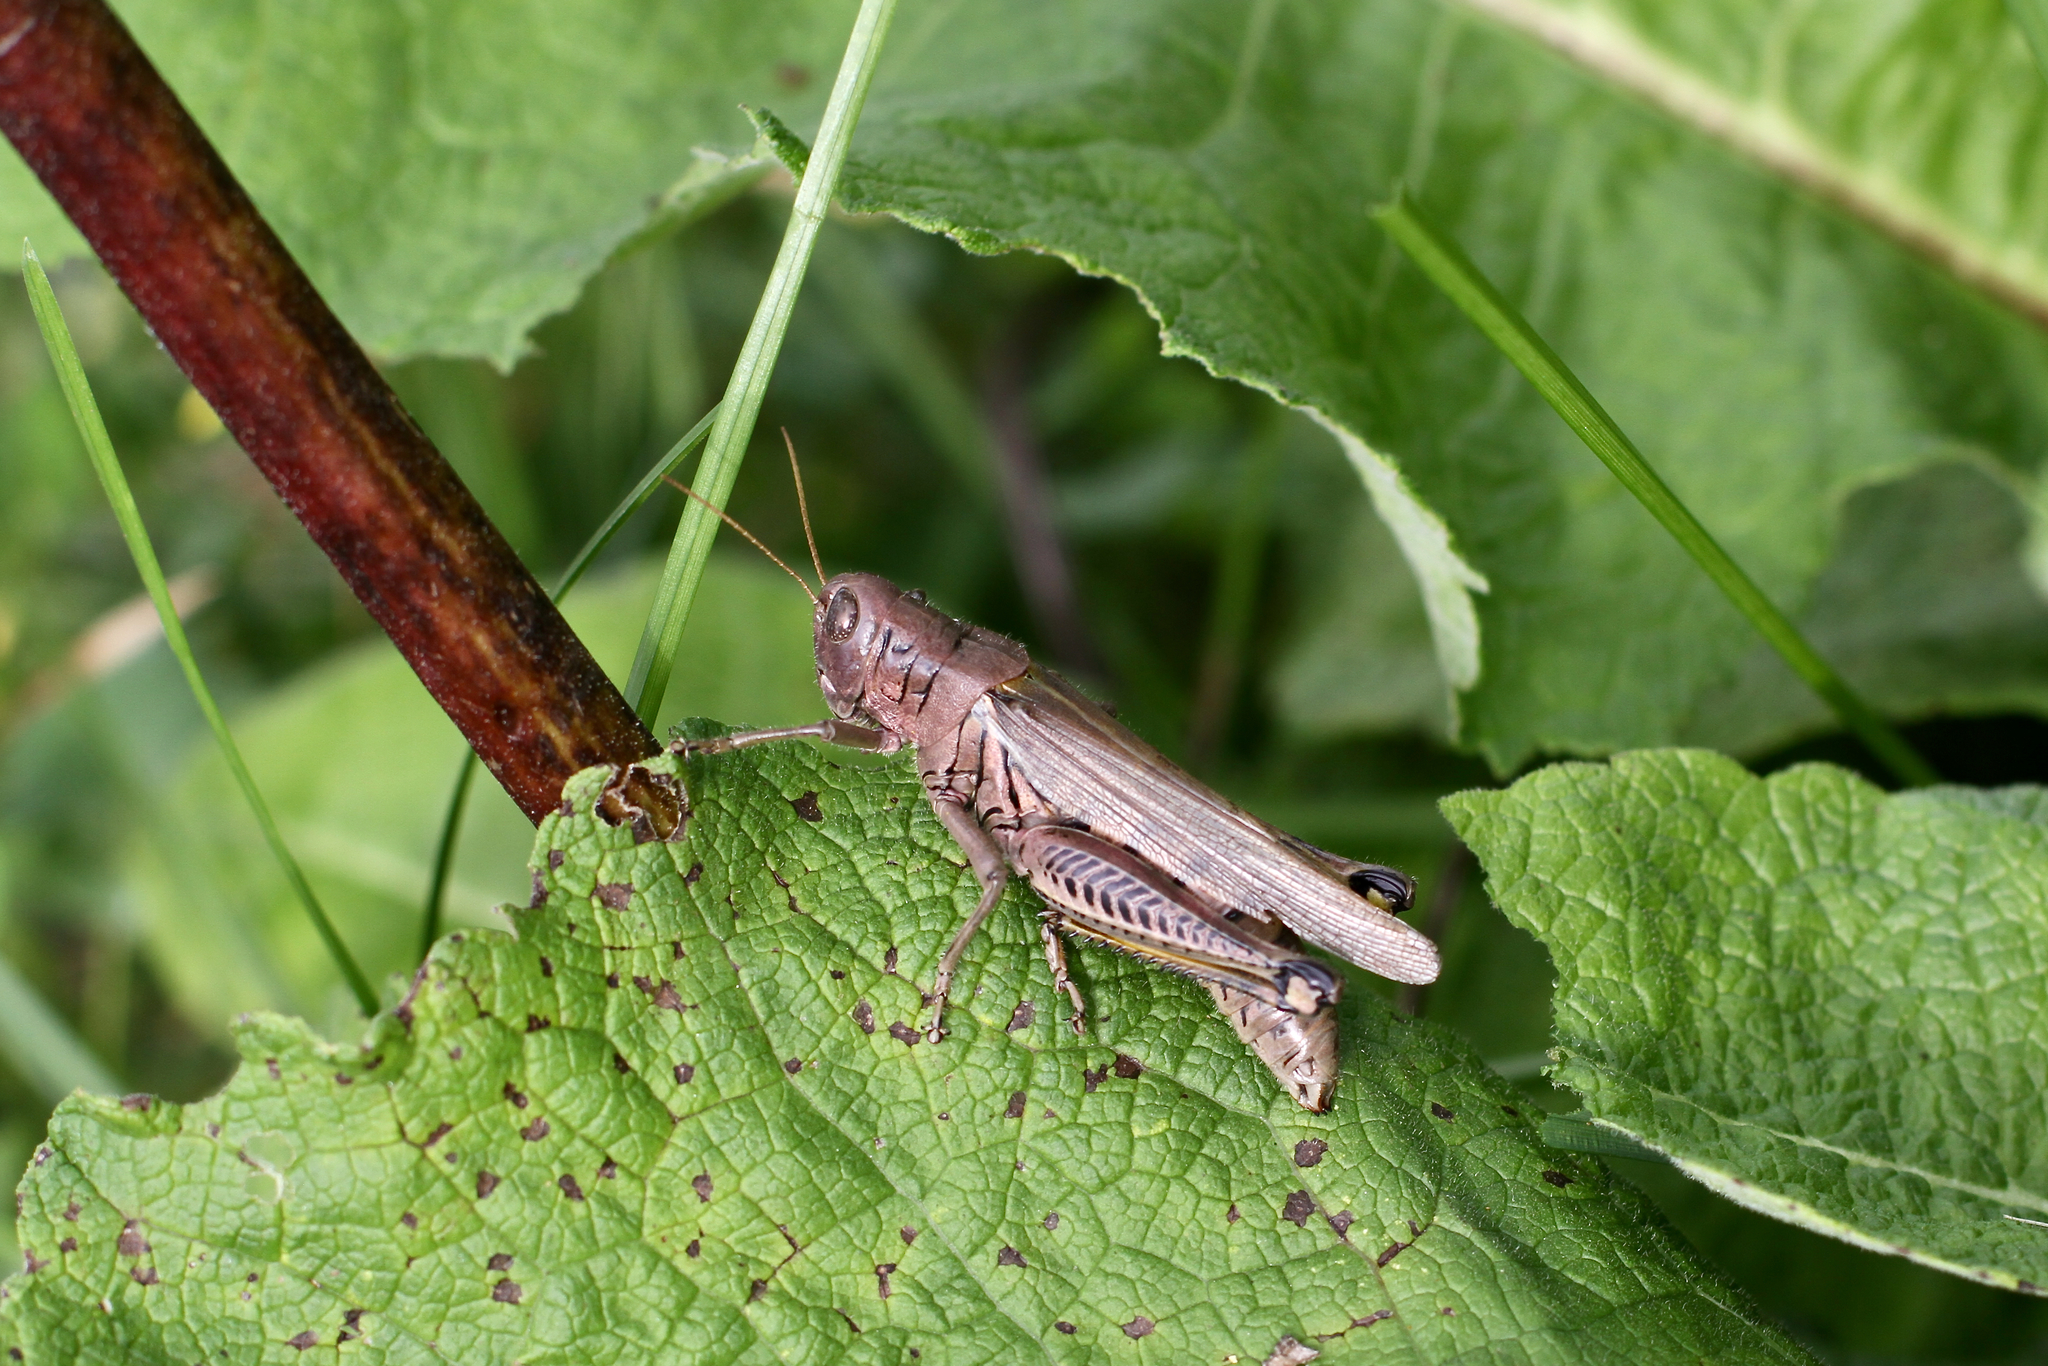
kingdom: Animalia
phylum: Arthropoda
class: Insecta
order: Orthoptera
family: Acrididae
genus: Melanoplus
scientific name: Melanoplus differentialis
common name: Differential grasshopper
